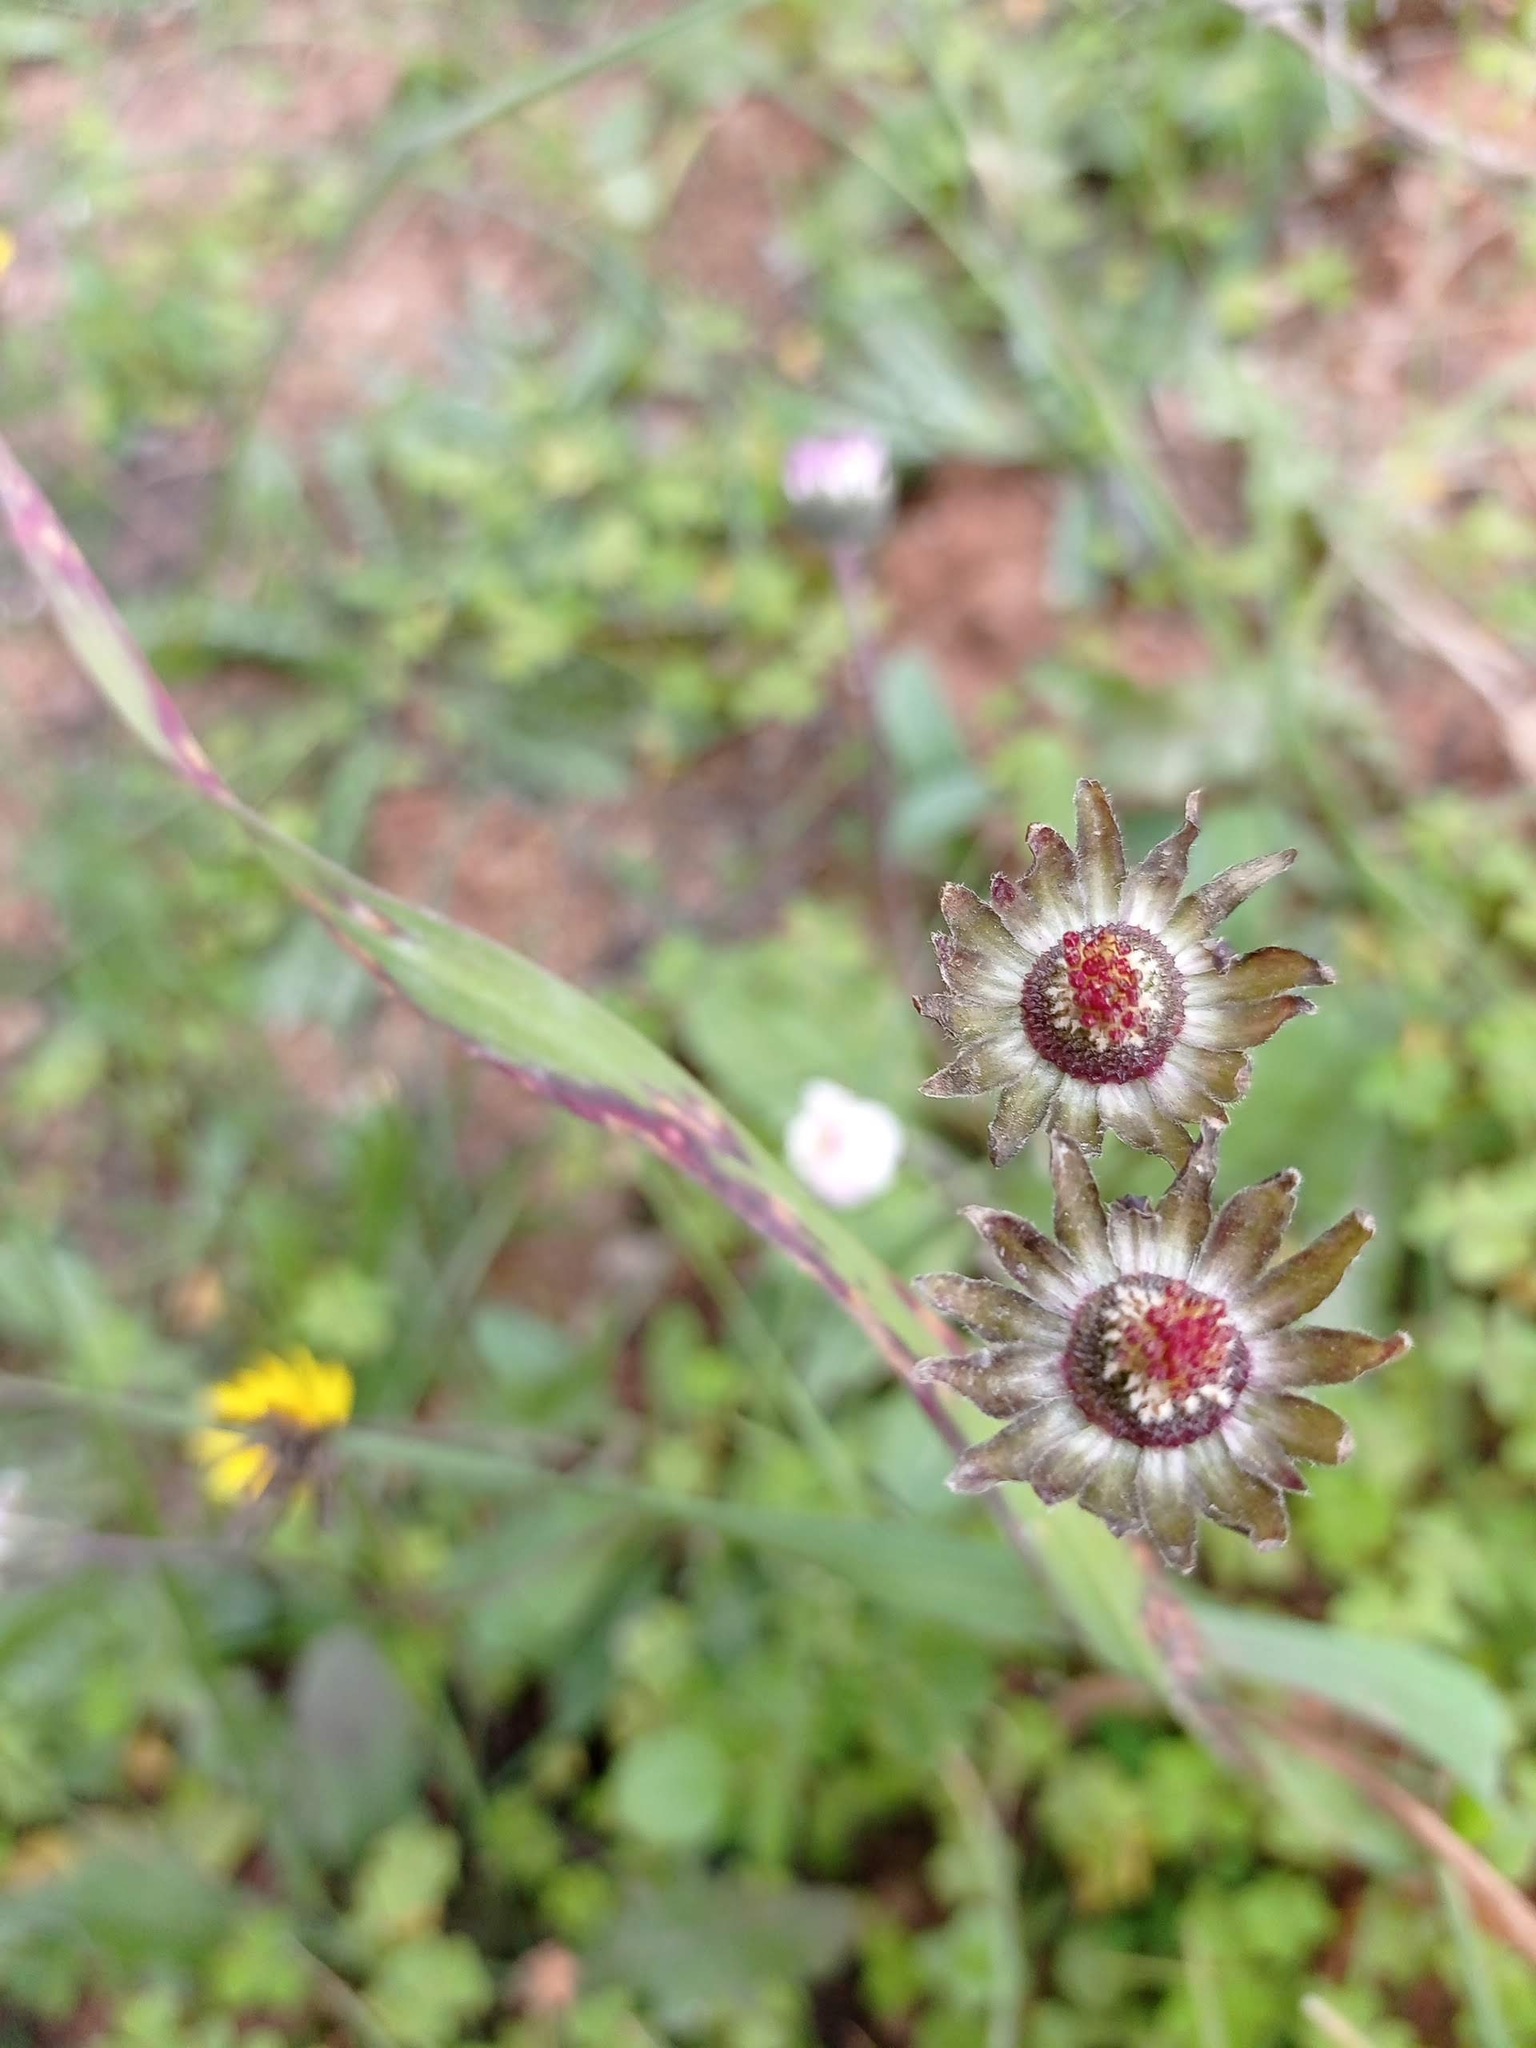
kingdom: Plantae
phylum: Tracheophyta
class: Magnoliopsida
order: Asterales
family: Asteraceae
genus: Bellis
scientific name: Bellis sylvestris
